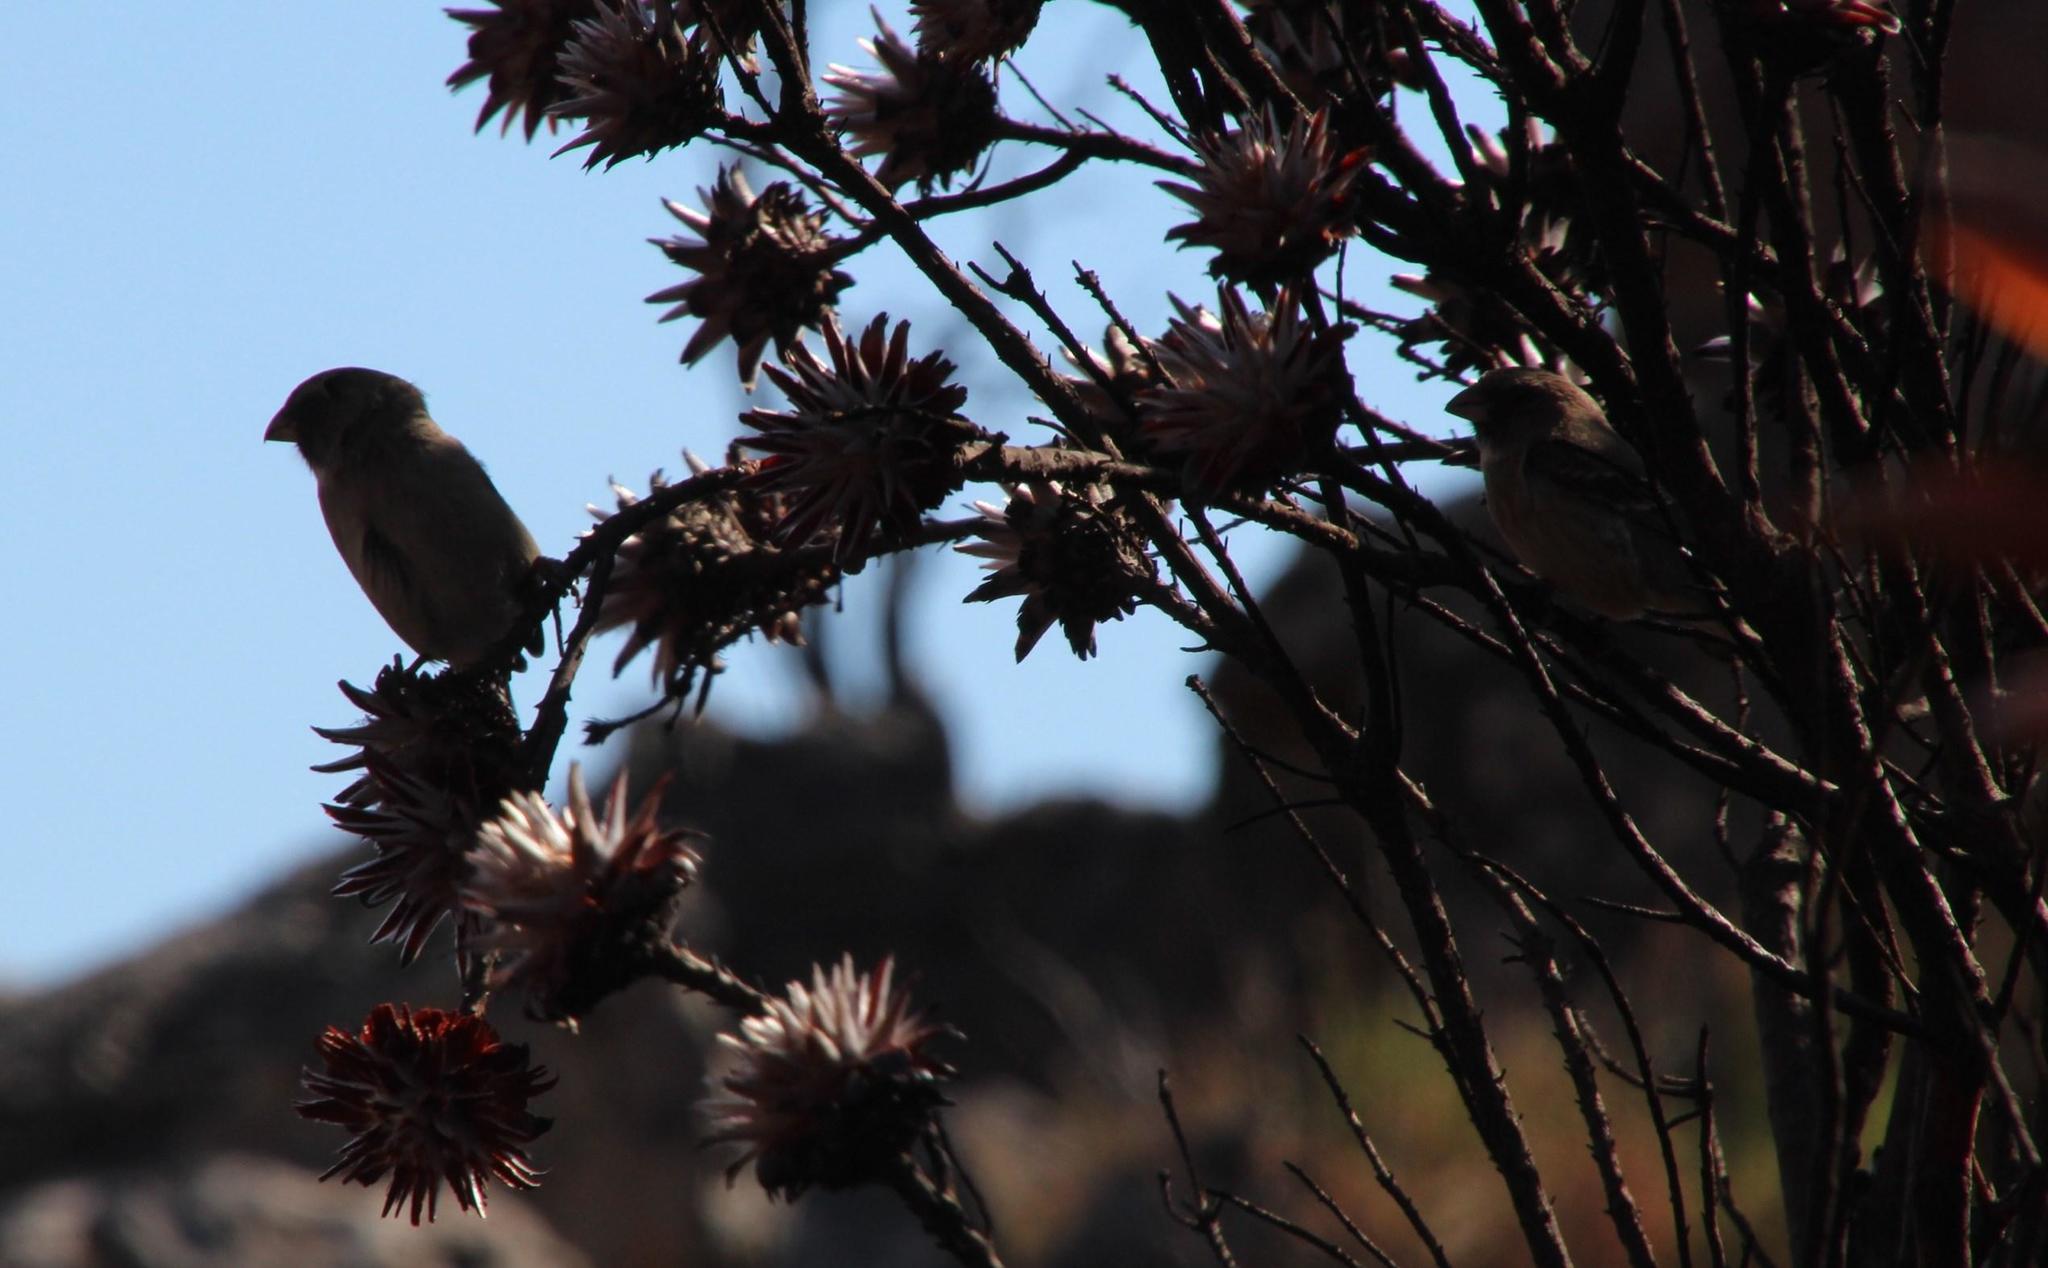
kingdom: Plantae
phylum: Tracheophyta
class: Magnoliopsida
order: Proteales
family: Proteaceae
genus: Leucadendron
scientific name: Leucadendron rubrum
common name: Spinning top
